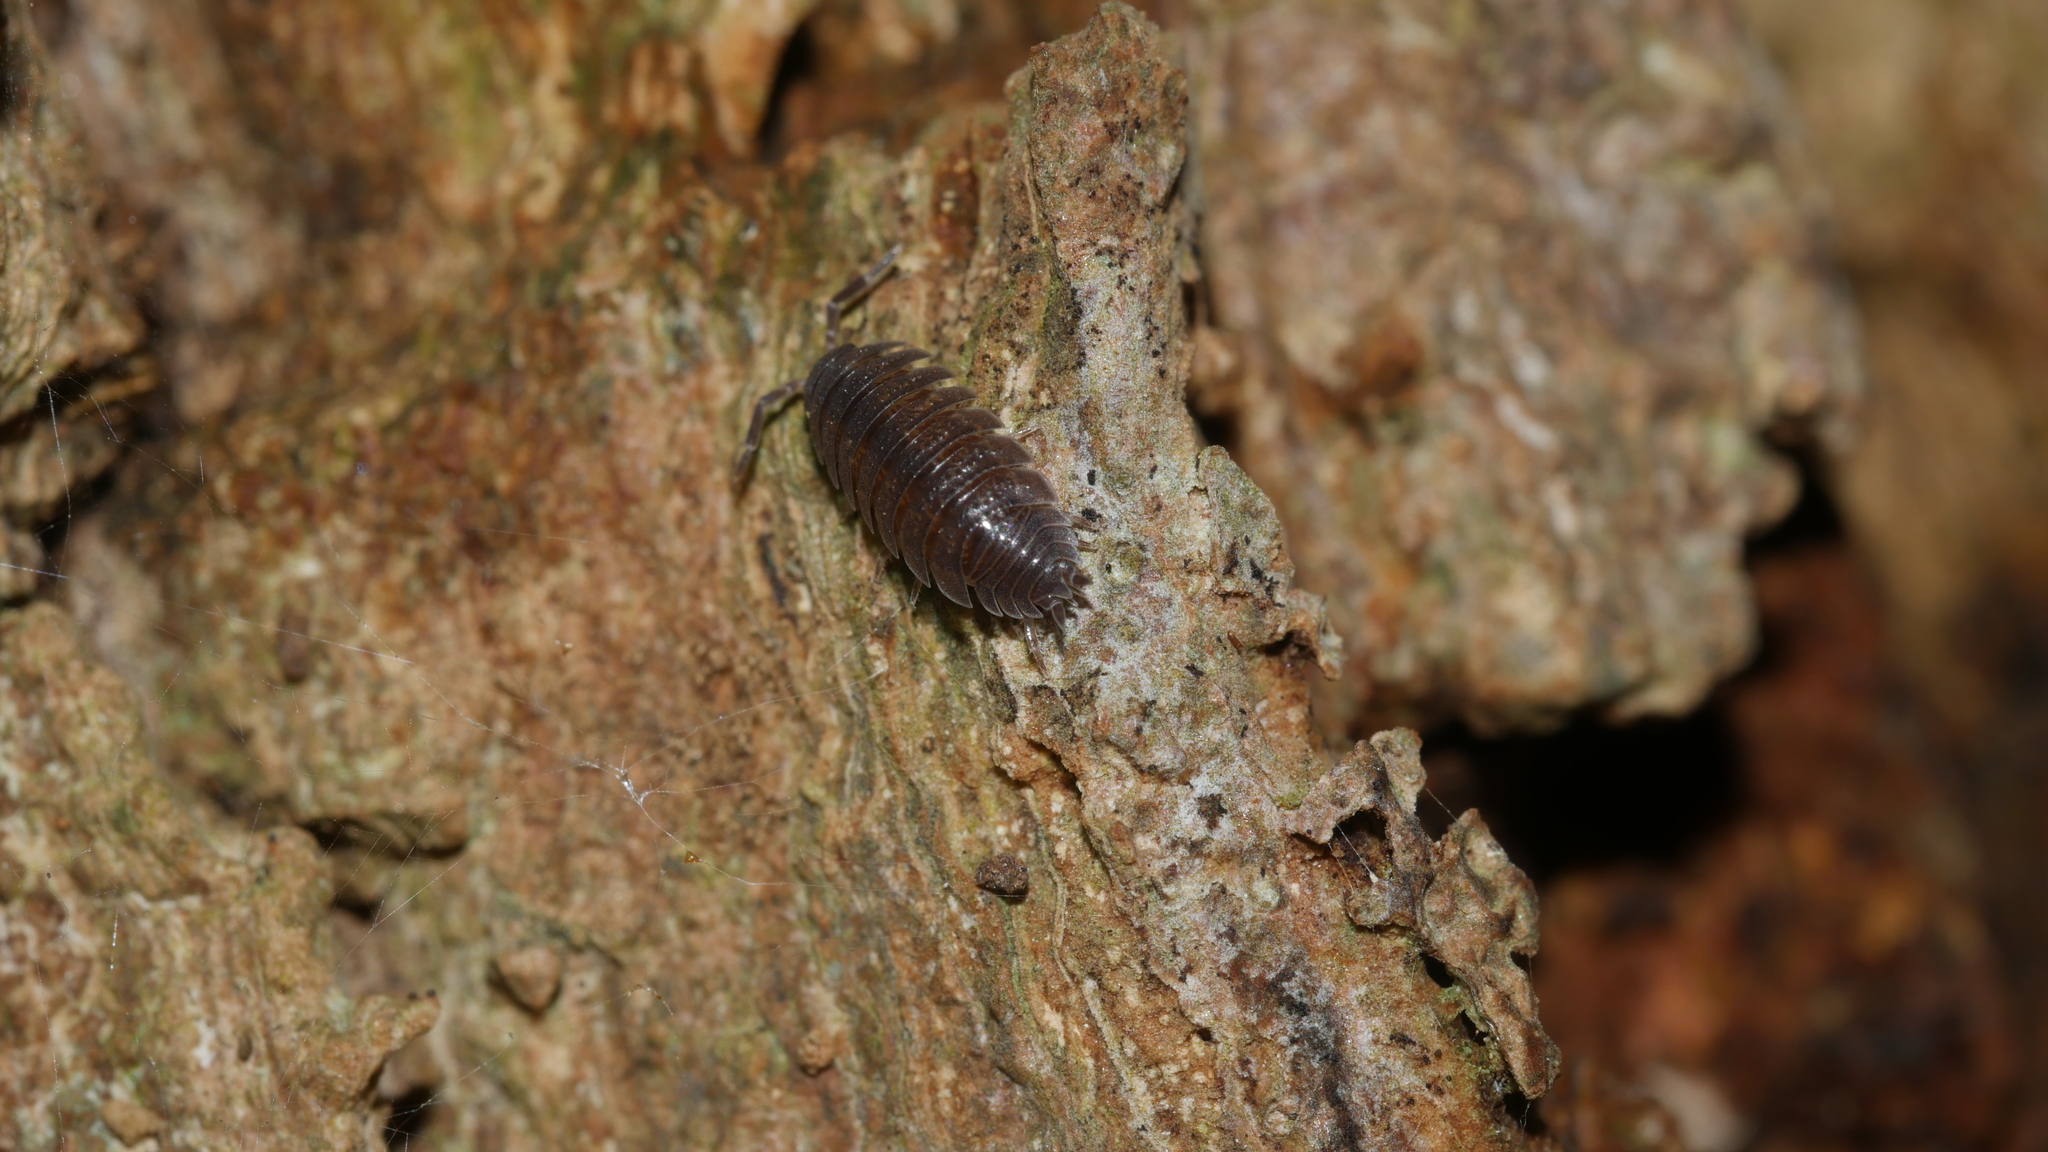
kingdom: Animalia
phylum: Arthropoda
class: Malacostraca
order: Isopoda
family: Porcellionidae
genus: Porcellio
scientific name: Porcellio scaber
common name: Common rough woodlouse
